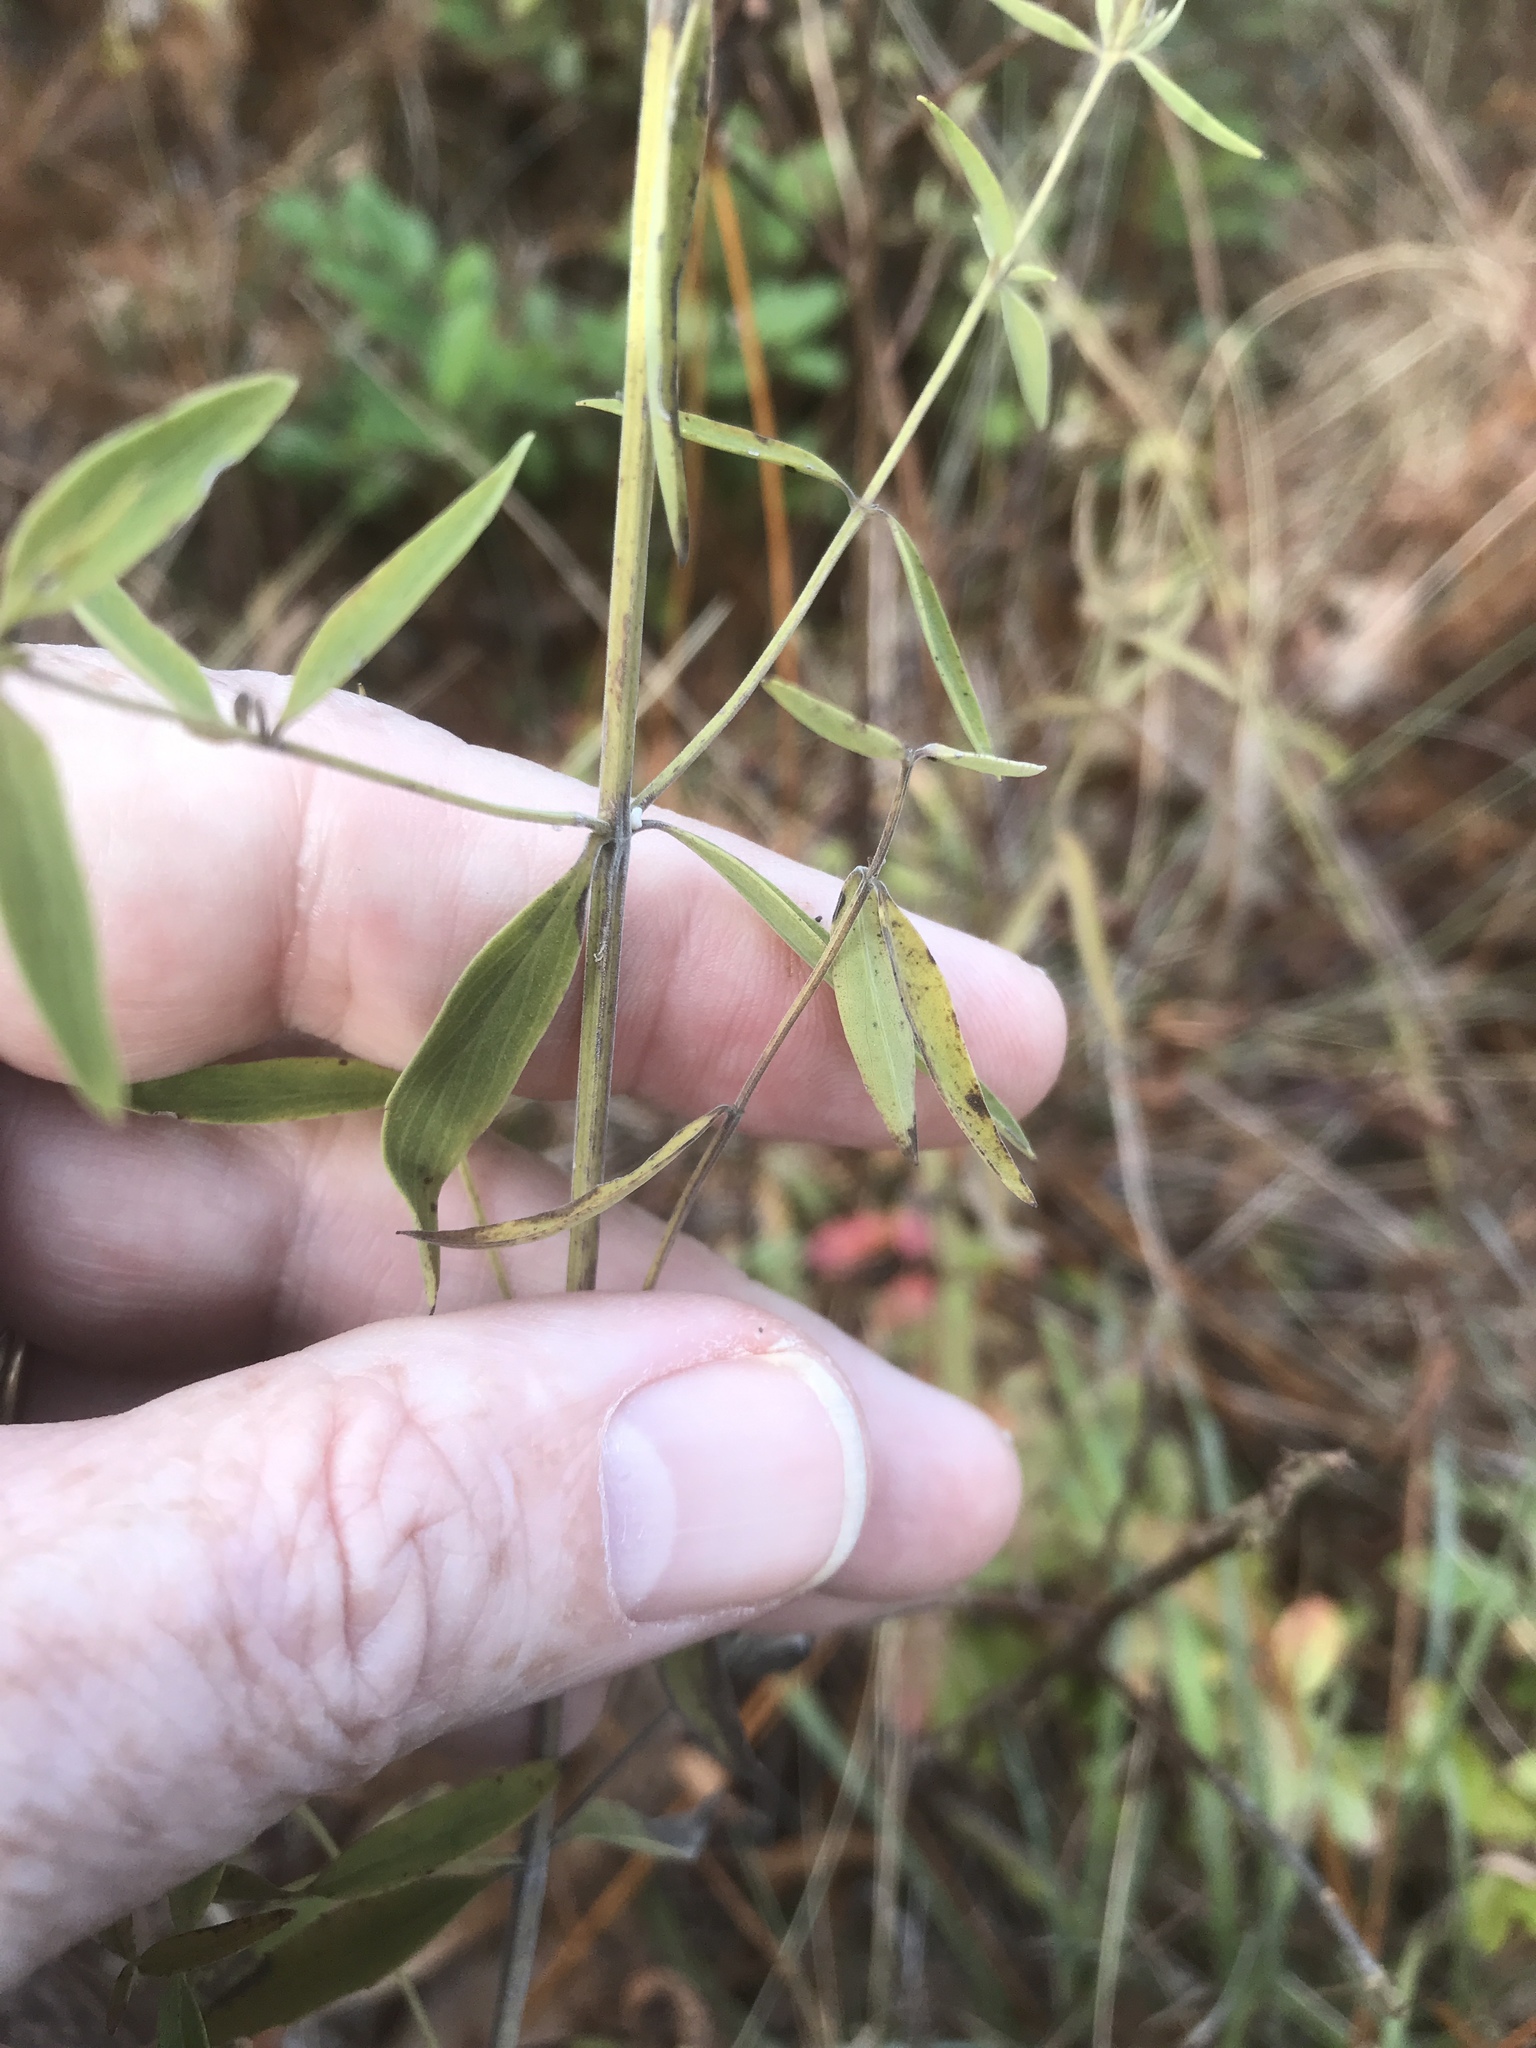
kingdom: Plantae
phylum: Tracheophyta
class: Magnoliopsida
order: Lamiales
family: Lamiaceae
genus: Pycnanthemum
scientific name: Pycnanthemum flexuosum
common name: Appalachian mountain-mint
